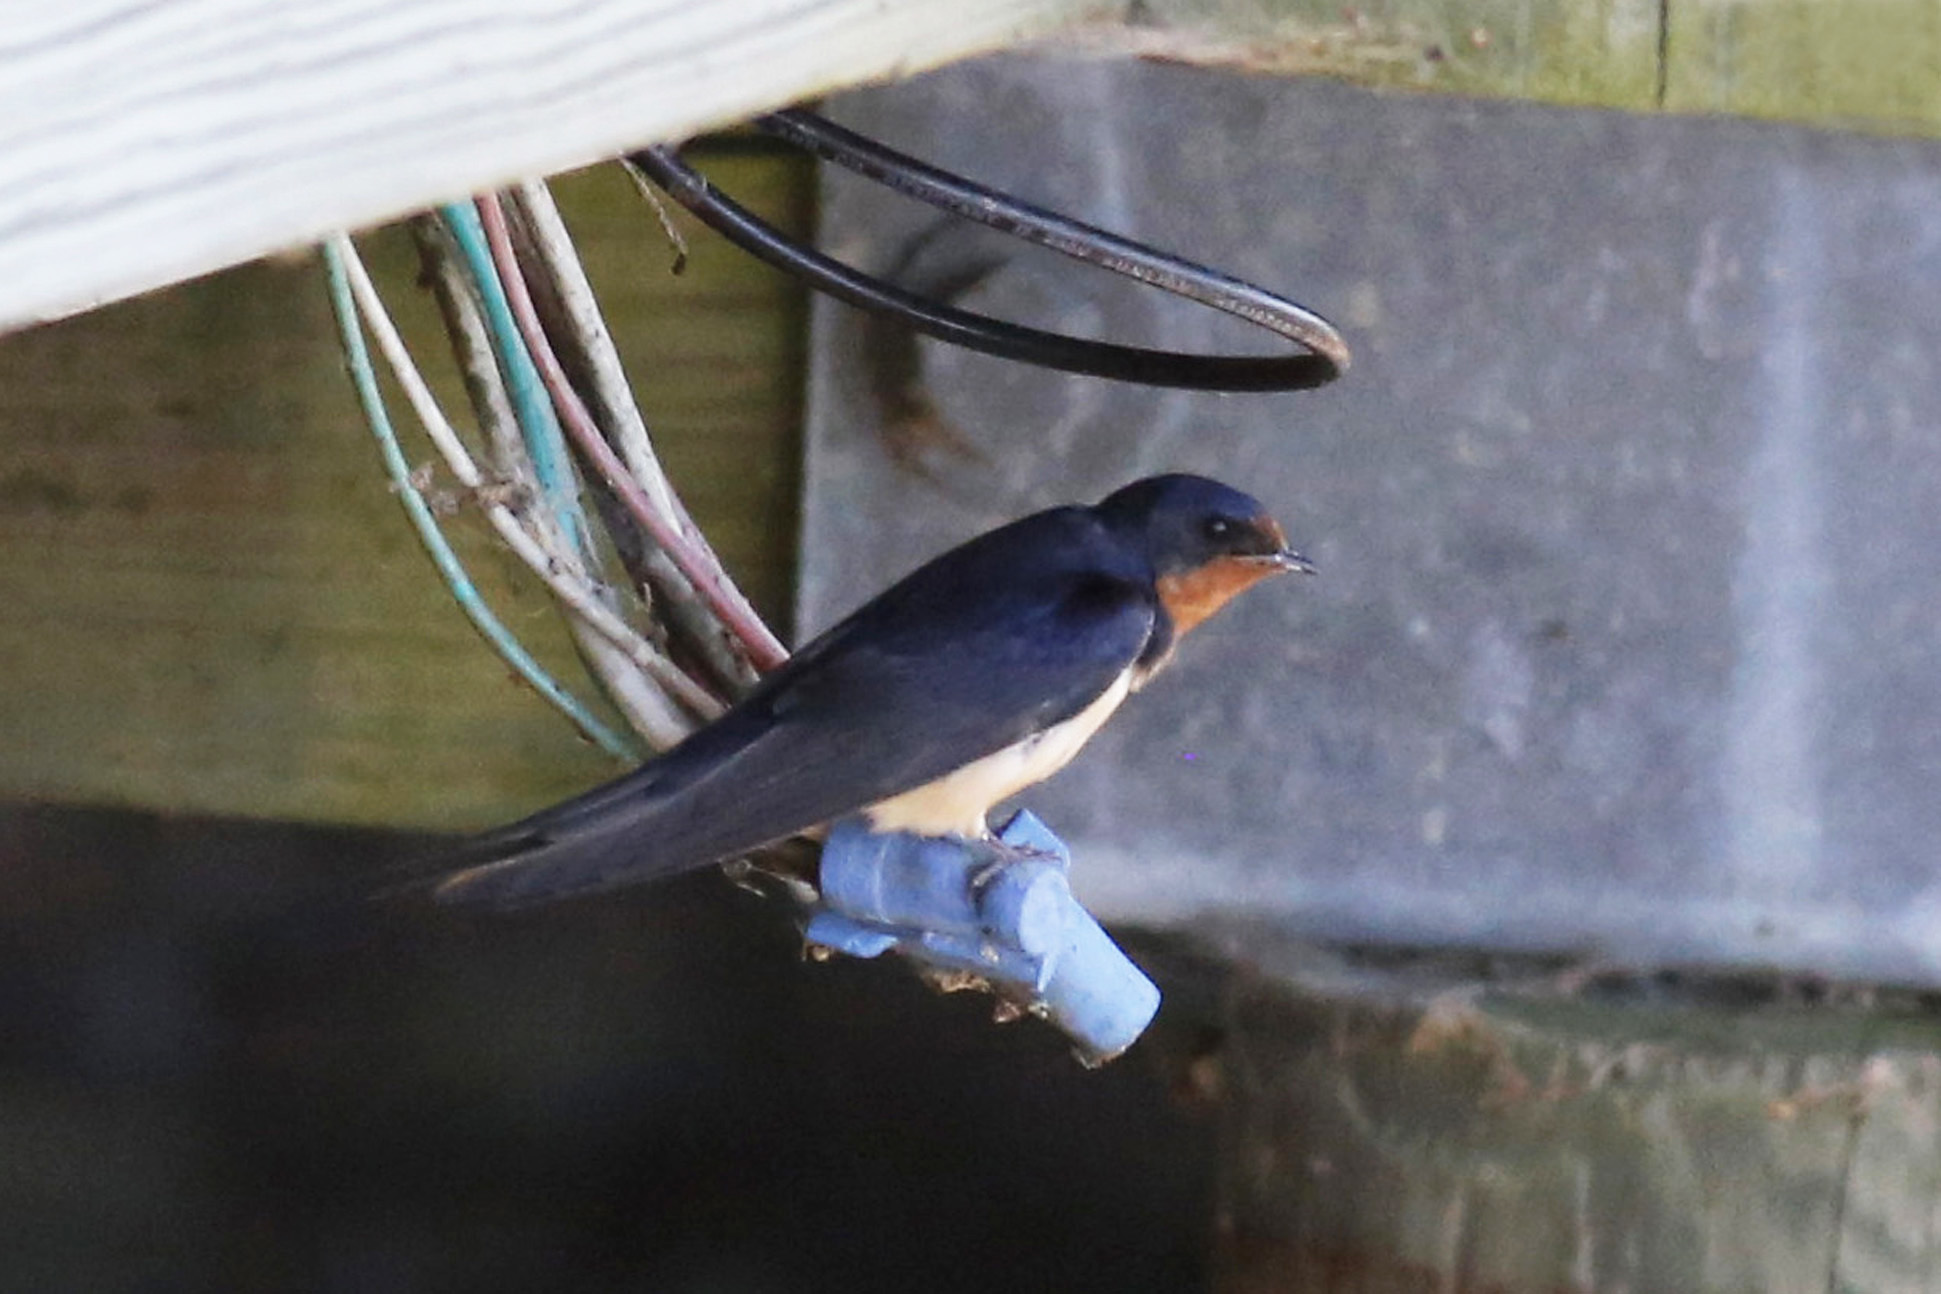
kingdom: Animalia
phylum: Chordata
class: Aves
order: Passeriformes
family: Hirundinidae
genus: Hirundo
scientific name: Hirundo rustica
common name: Barn swallow
